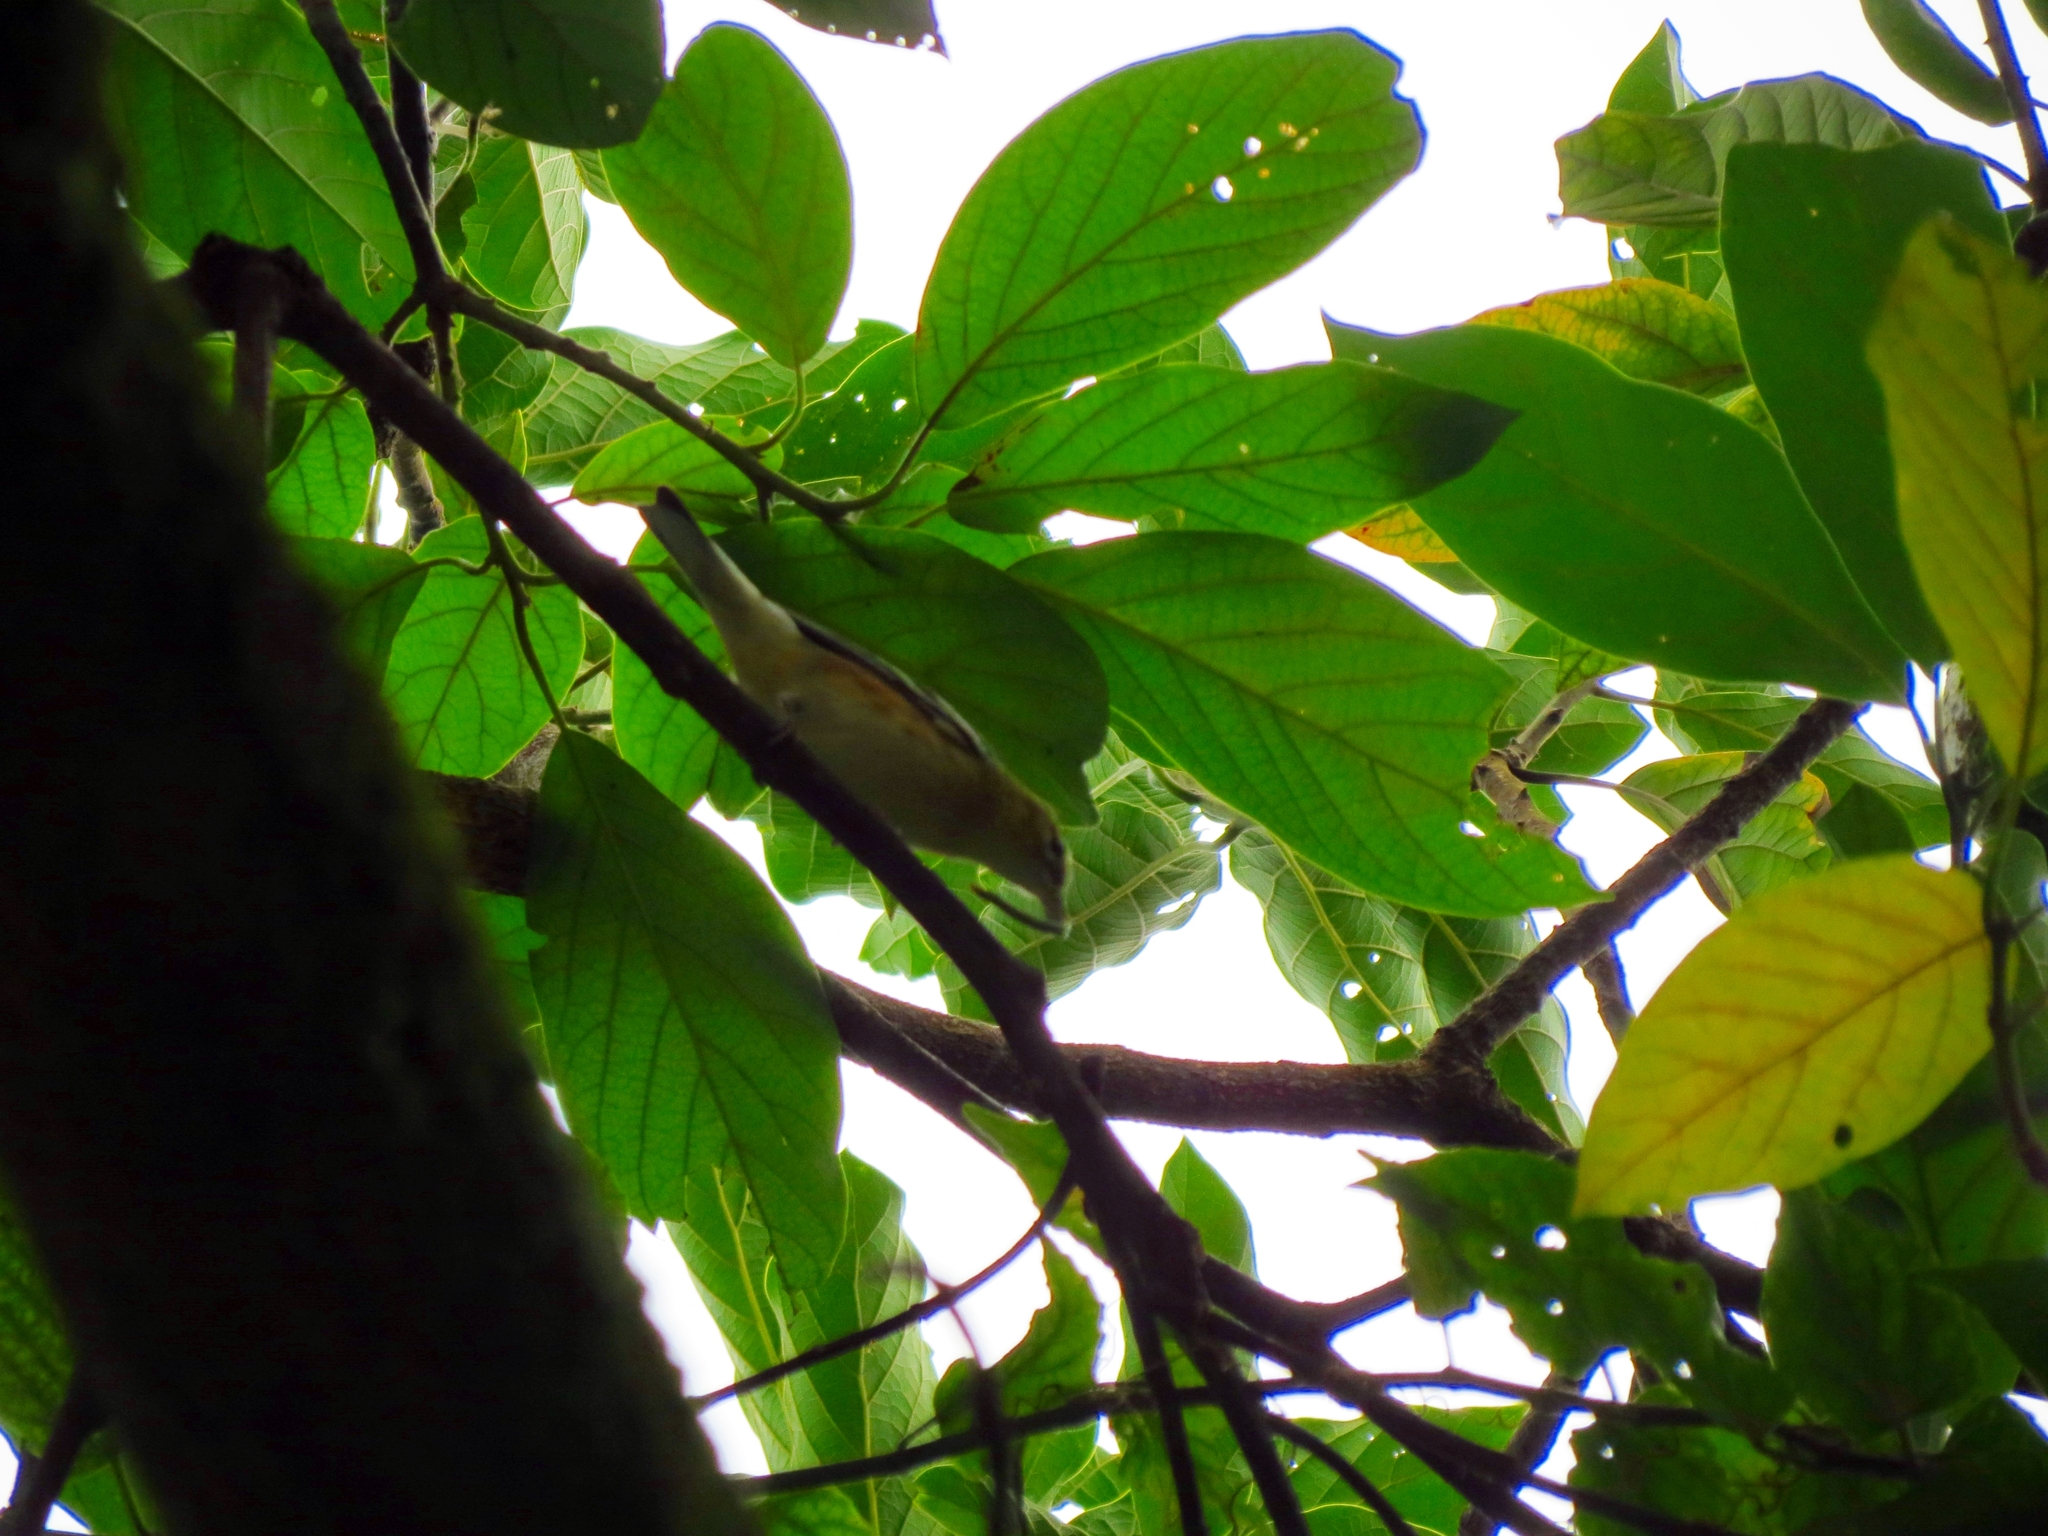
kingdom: Animalia
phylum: Chordata
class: Aves
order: Passeriformes
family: Parulidae
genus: Setophaga
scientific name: Setophaga castanea
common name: Bay-breasted warbler
